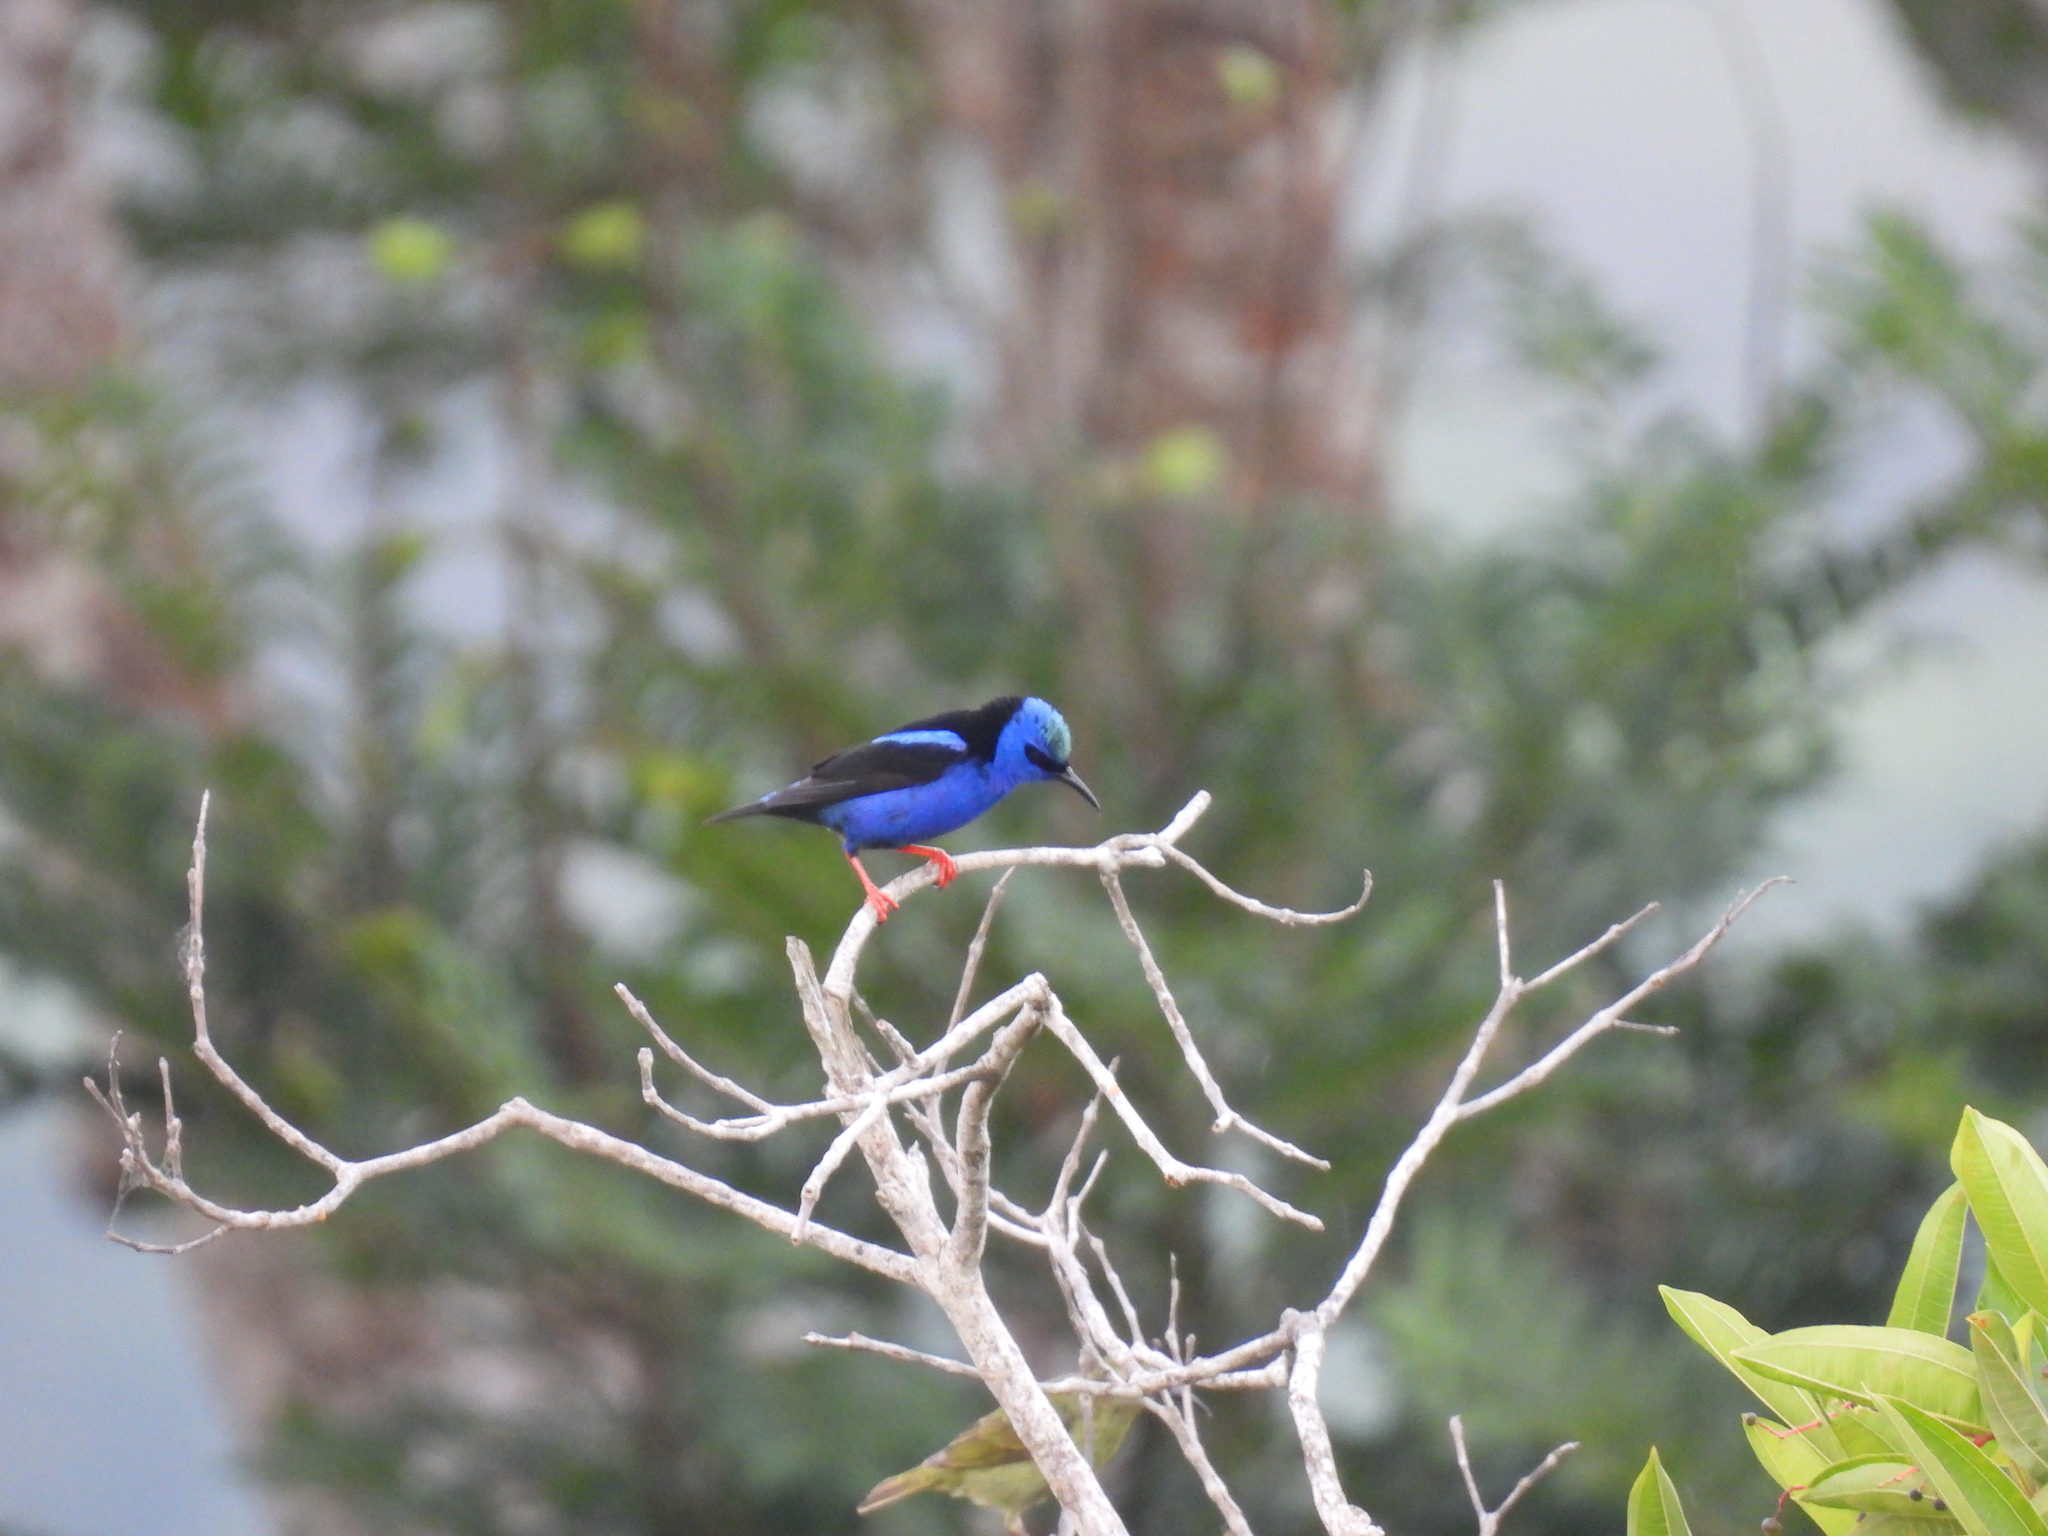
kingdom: Animalia
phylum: Chordata
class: Aves
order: Passeriformes
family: Thraupidae
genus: Cyanerpes
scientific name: Cyanerpes cyaneus
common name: Red-legged honeycreeper
